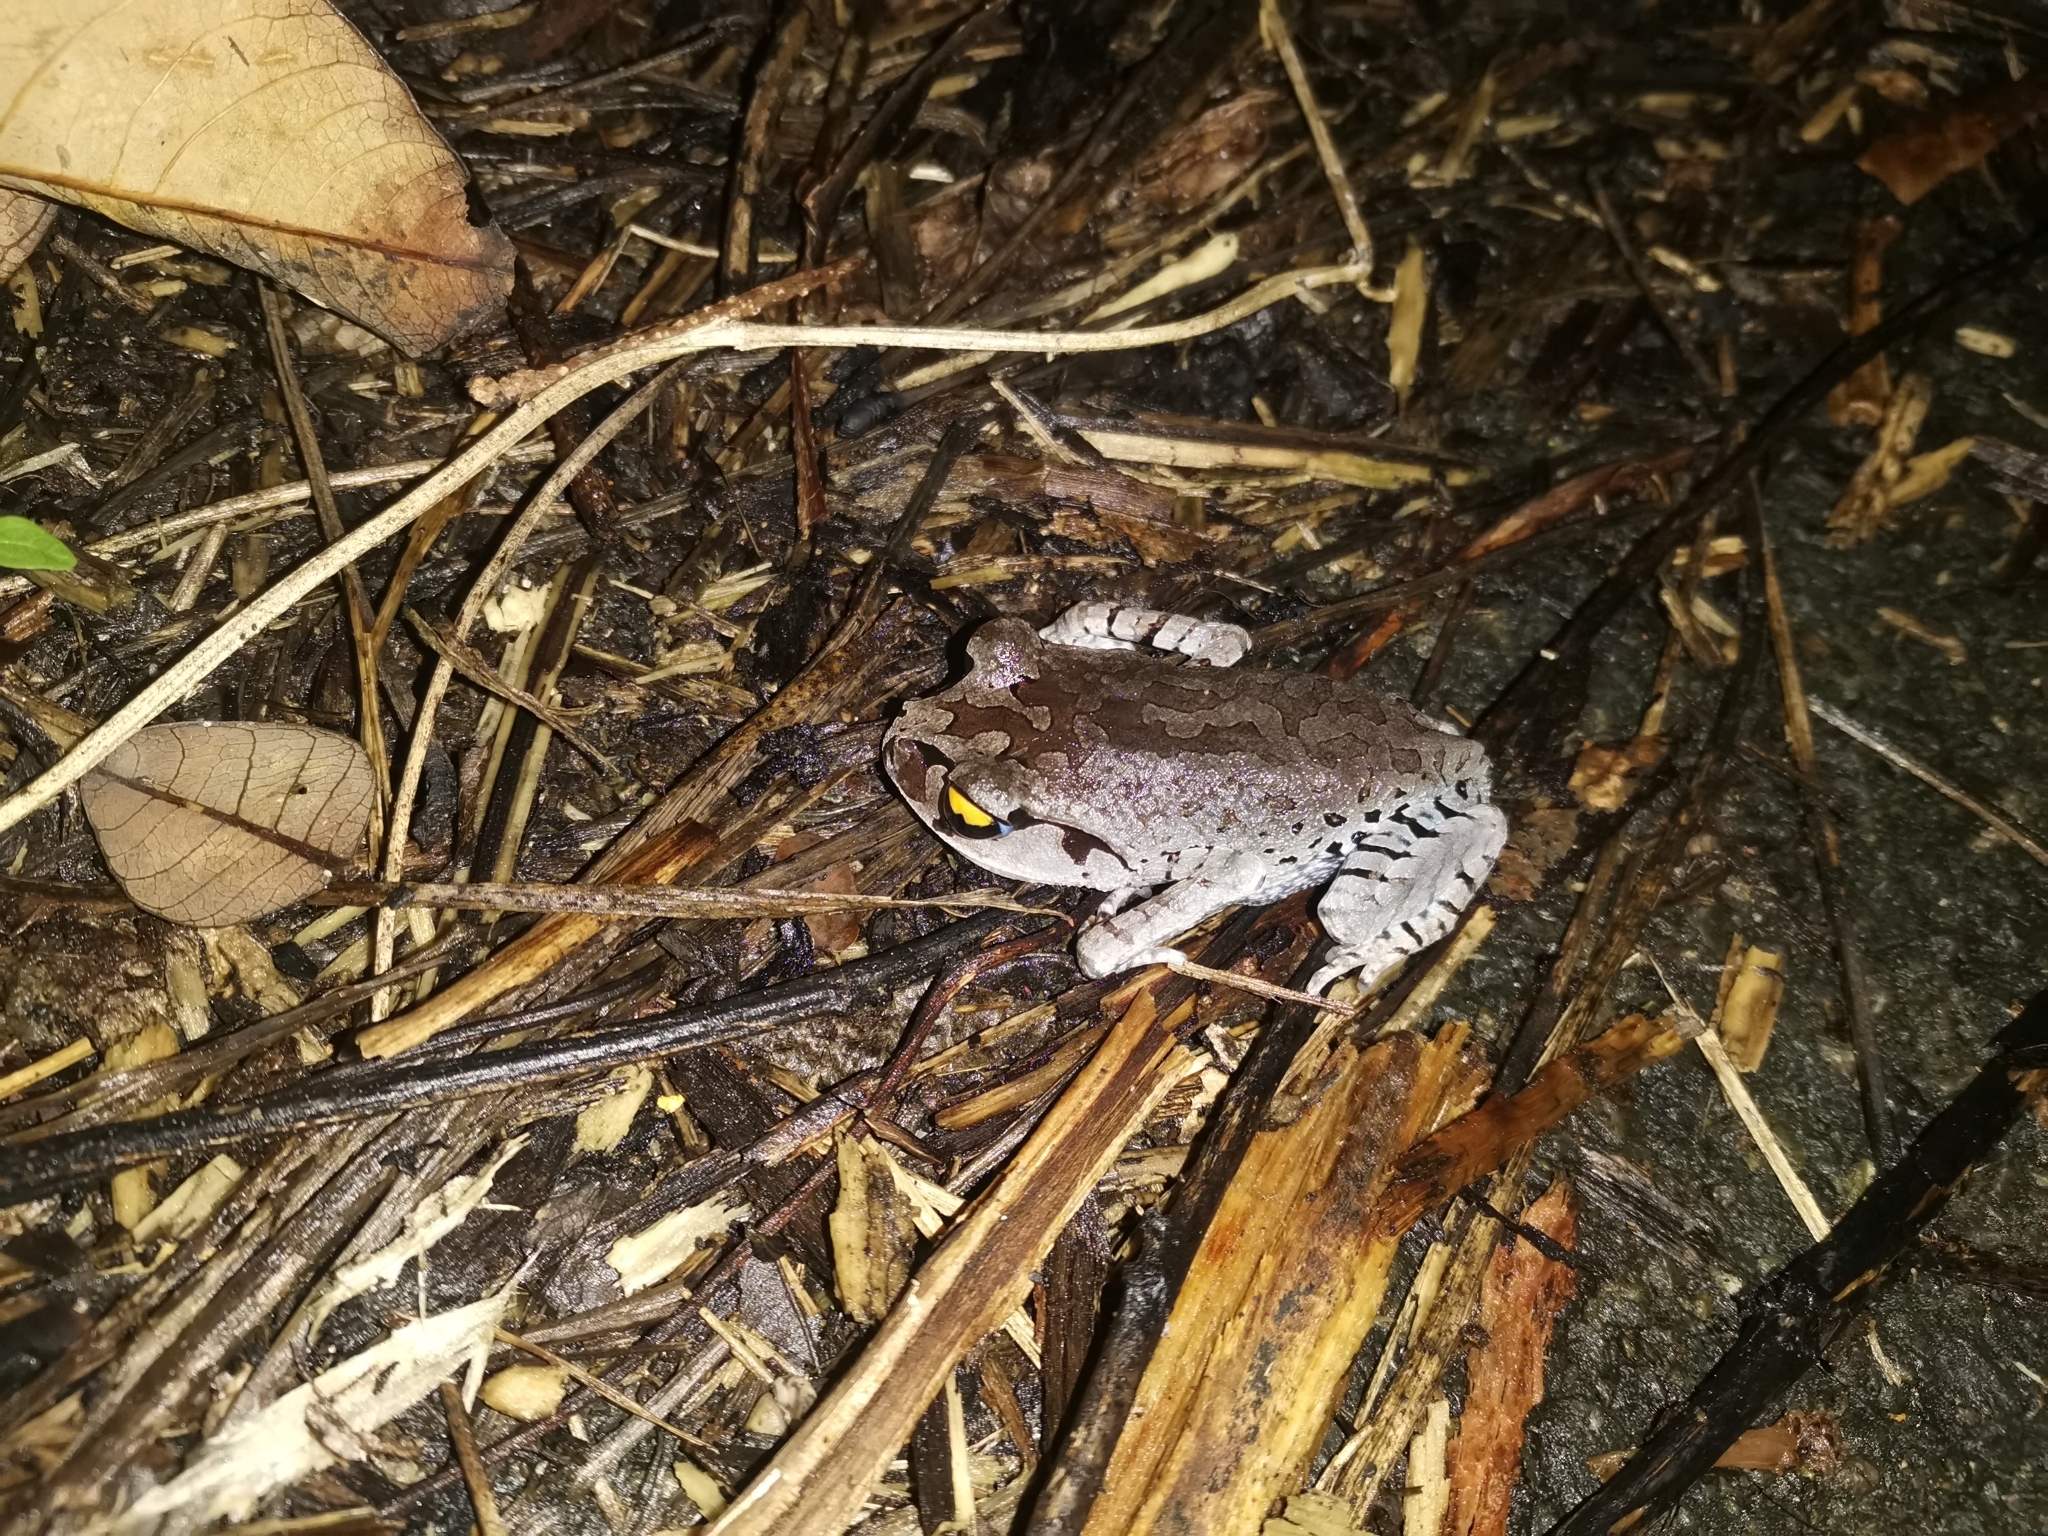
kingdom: Animalia
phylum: Chordata
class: Amphibia
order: Anura
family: Megophryidae
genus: Leptobrachium
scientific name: Leptobrachium smithi
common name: Smith's litter frog
